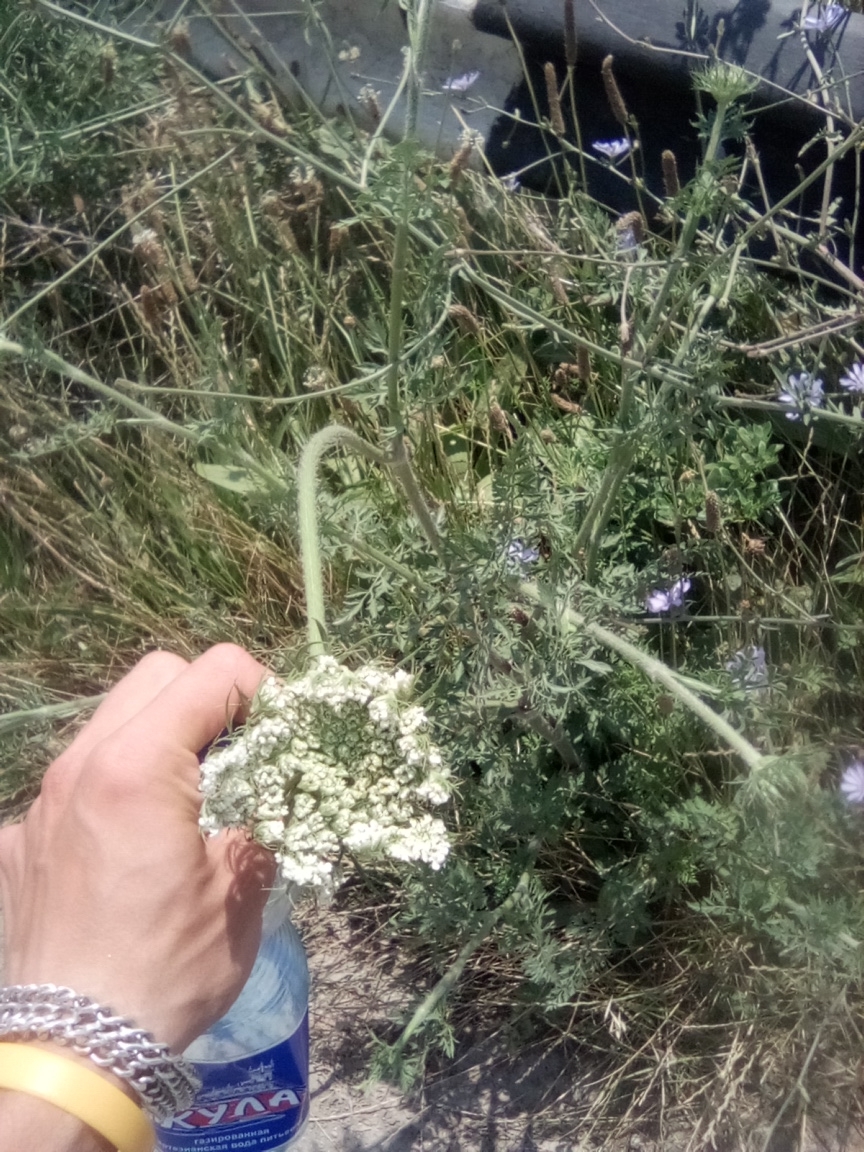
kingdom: Plantae
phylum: Tracheophyta
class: Magnoliopsida
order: Apiales
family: Apiaceae
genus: Daucus
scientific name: Daucus carota
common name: Wild carrot
